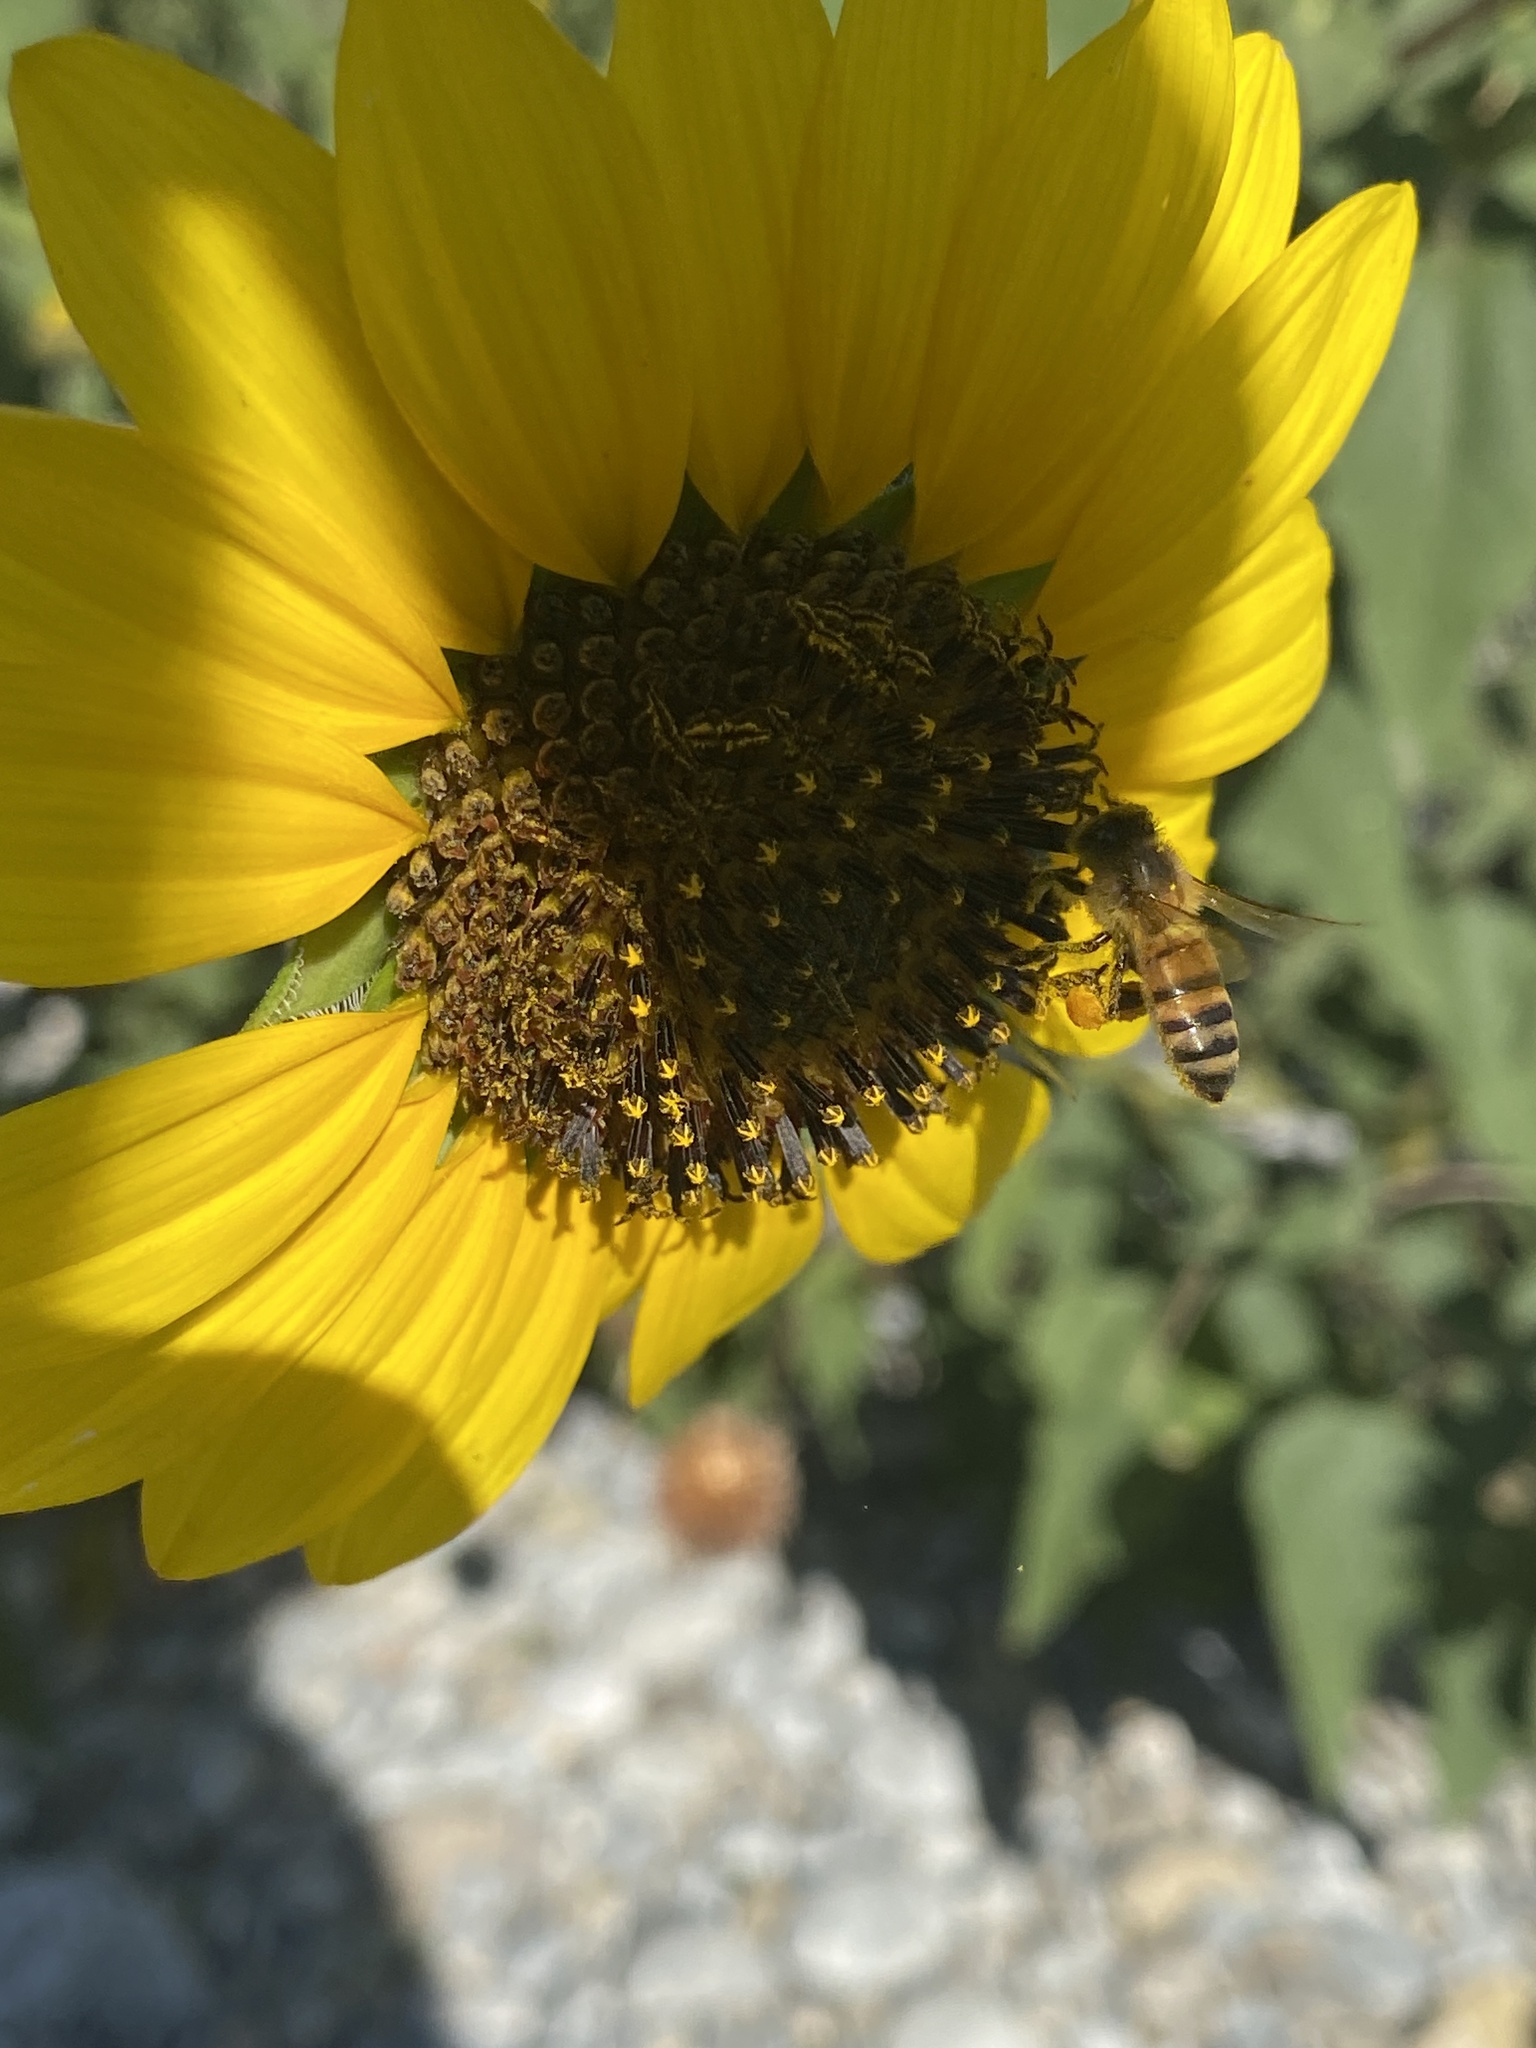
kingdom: Plantae
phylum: Tracheophyta
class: Magnoliopsida
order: Asterales
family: Asteraceae
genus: Helianthus
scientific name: Helianthus annuus
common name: Sunflower
